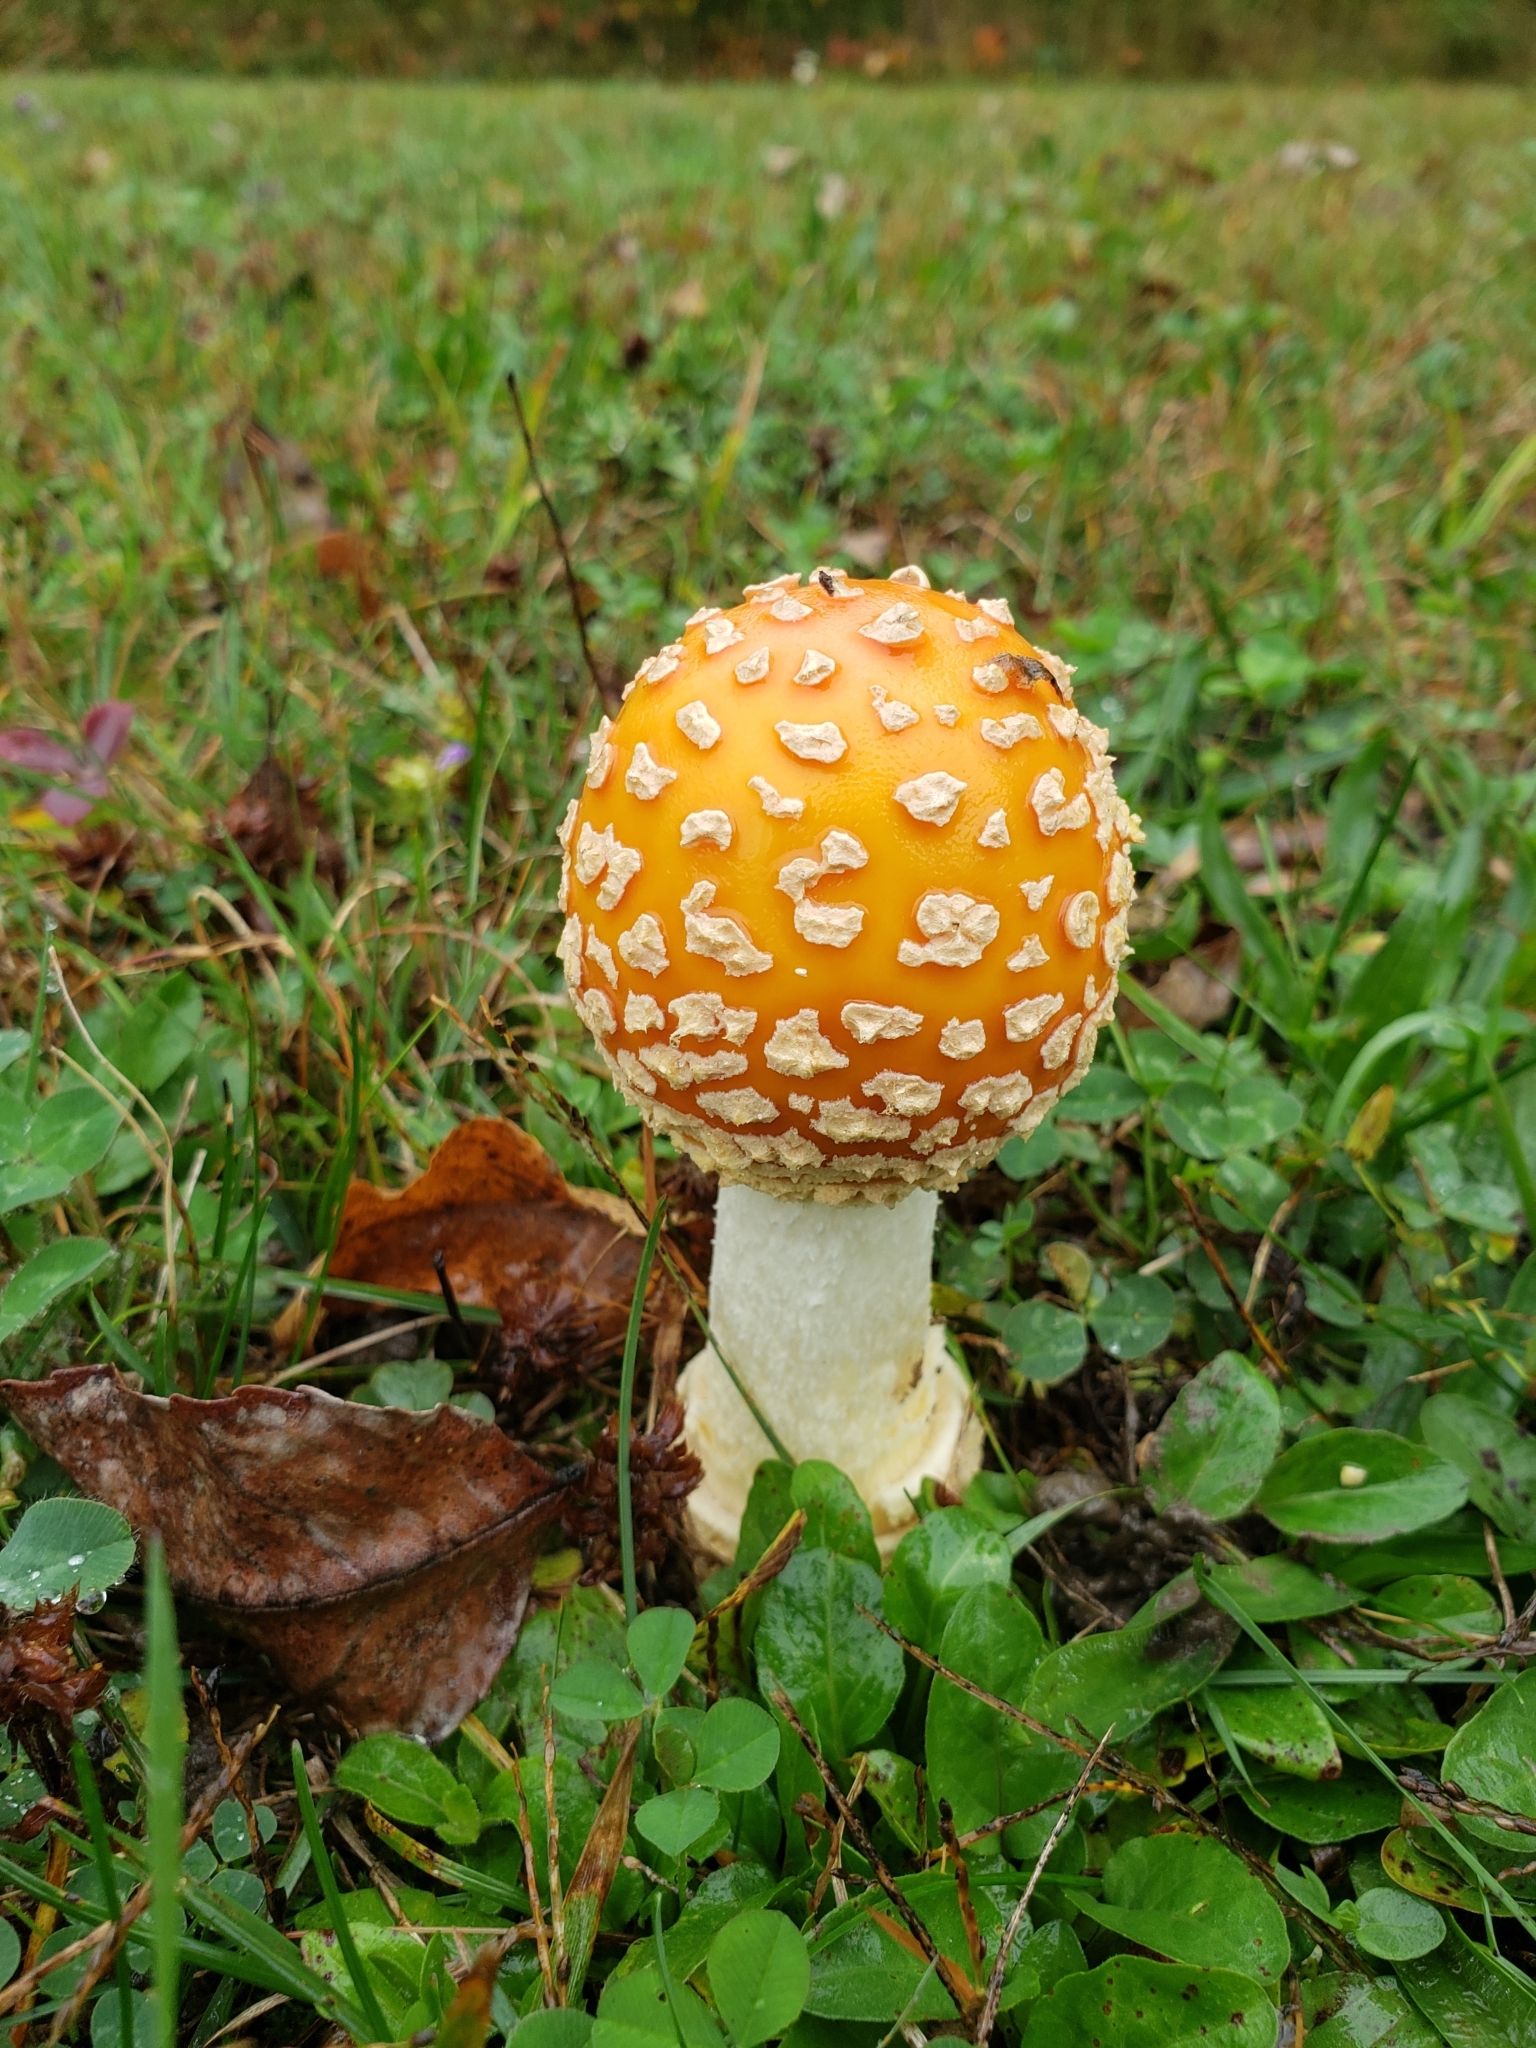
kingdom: Fungi
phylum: Basidiomycota
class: Agaricomycetes
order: Agaricales
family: Amanitaceae
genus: Amanita
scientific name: Amanita muscaria
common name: Fly agaric
